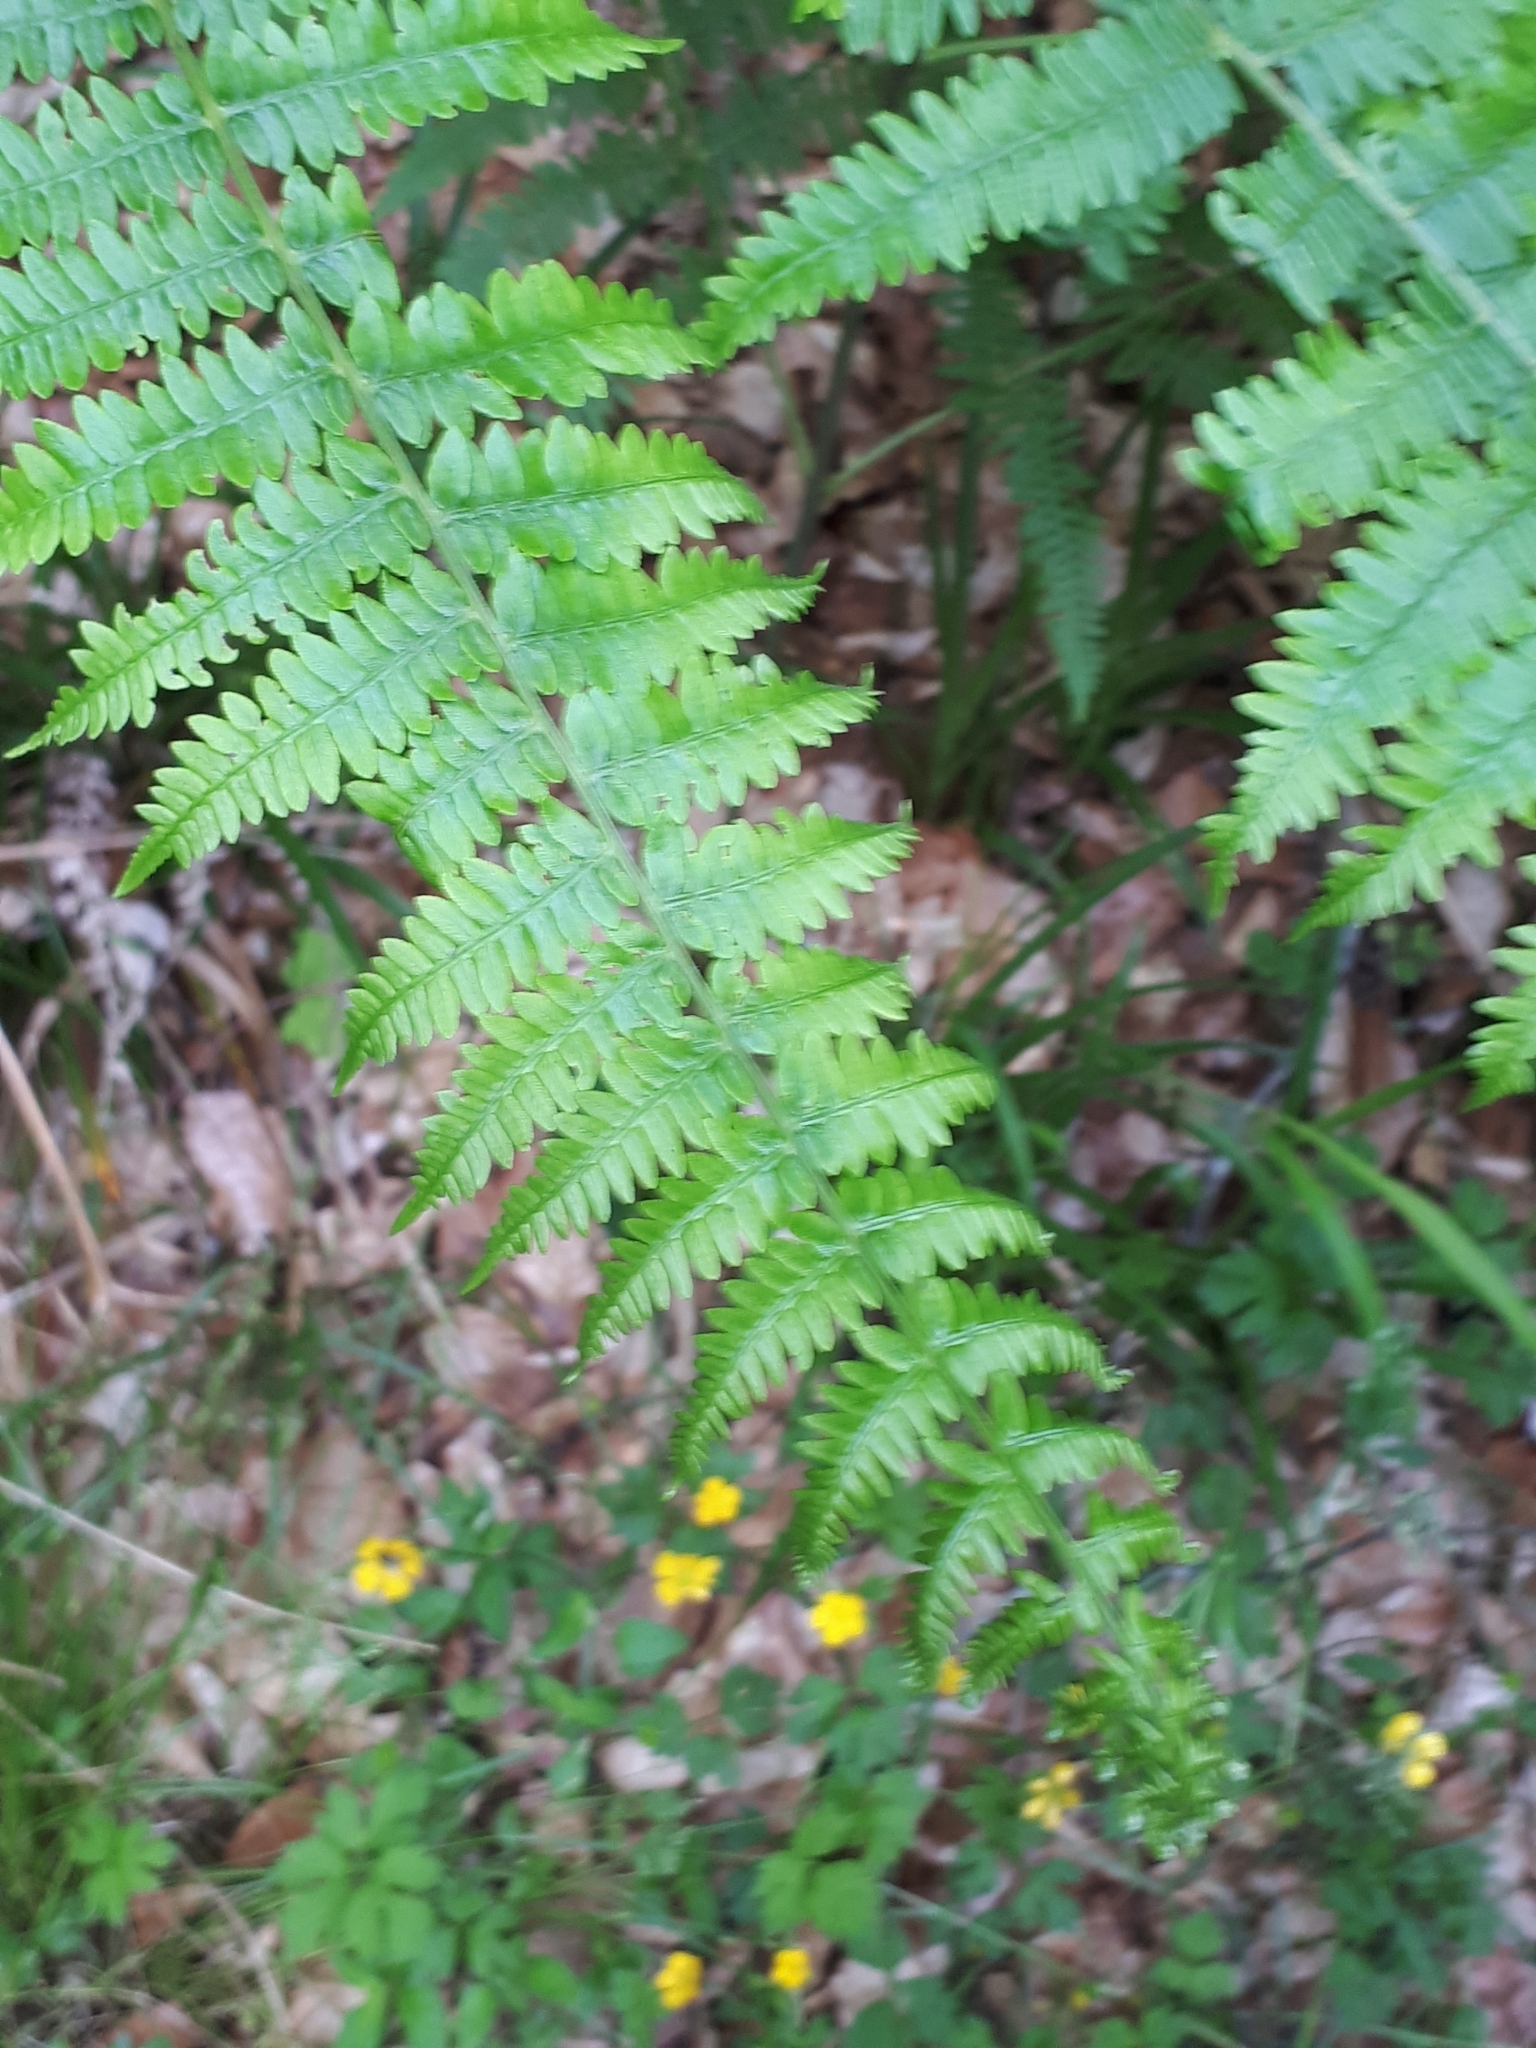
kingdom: Plantae
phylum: Tracheophyta
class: Polypodiopsida
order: Polypodiales
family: Dennstaedtiaceae
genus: Pteridium
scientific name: Pteridium aquilinum
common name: Bracken
